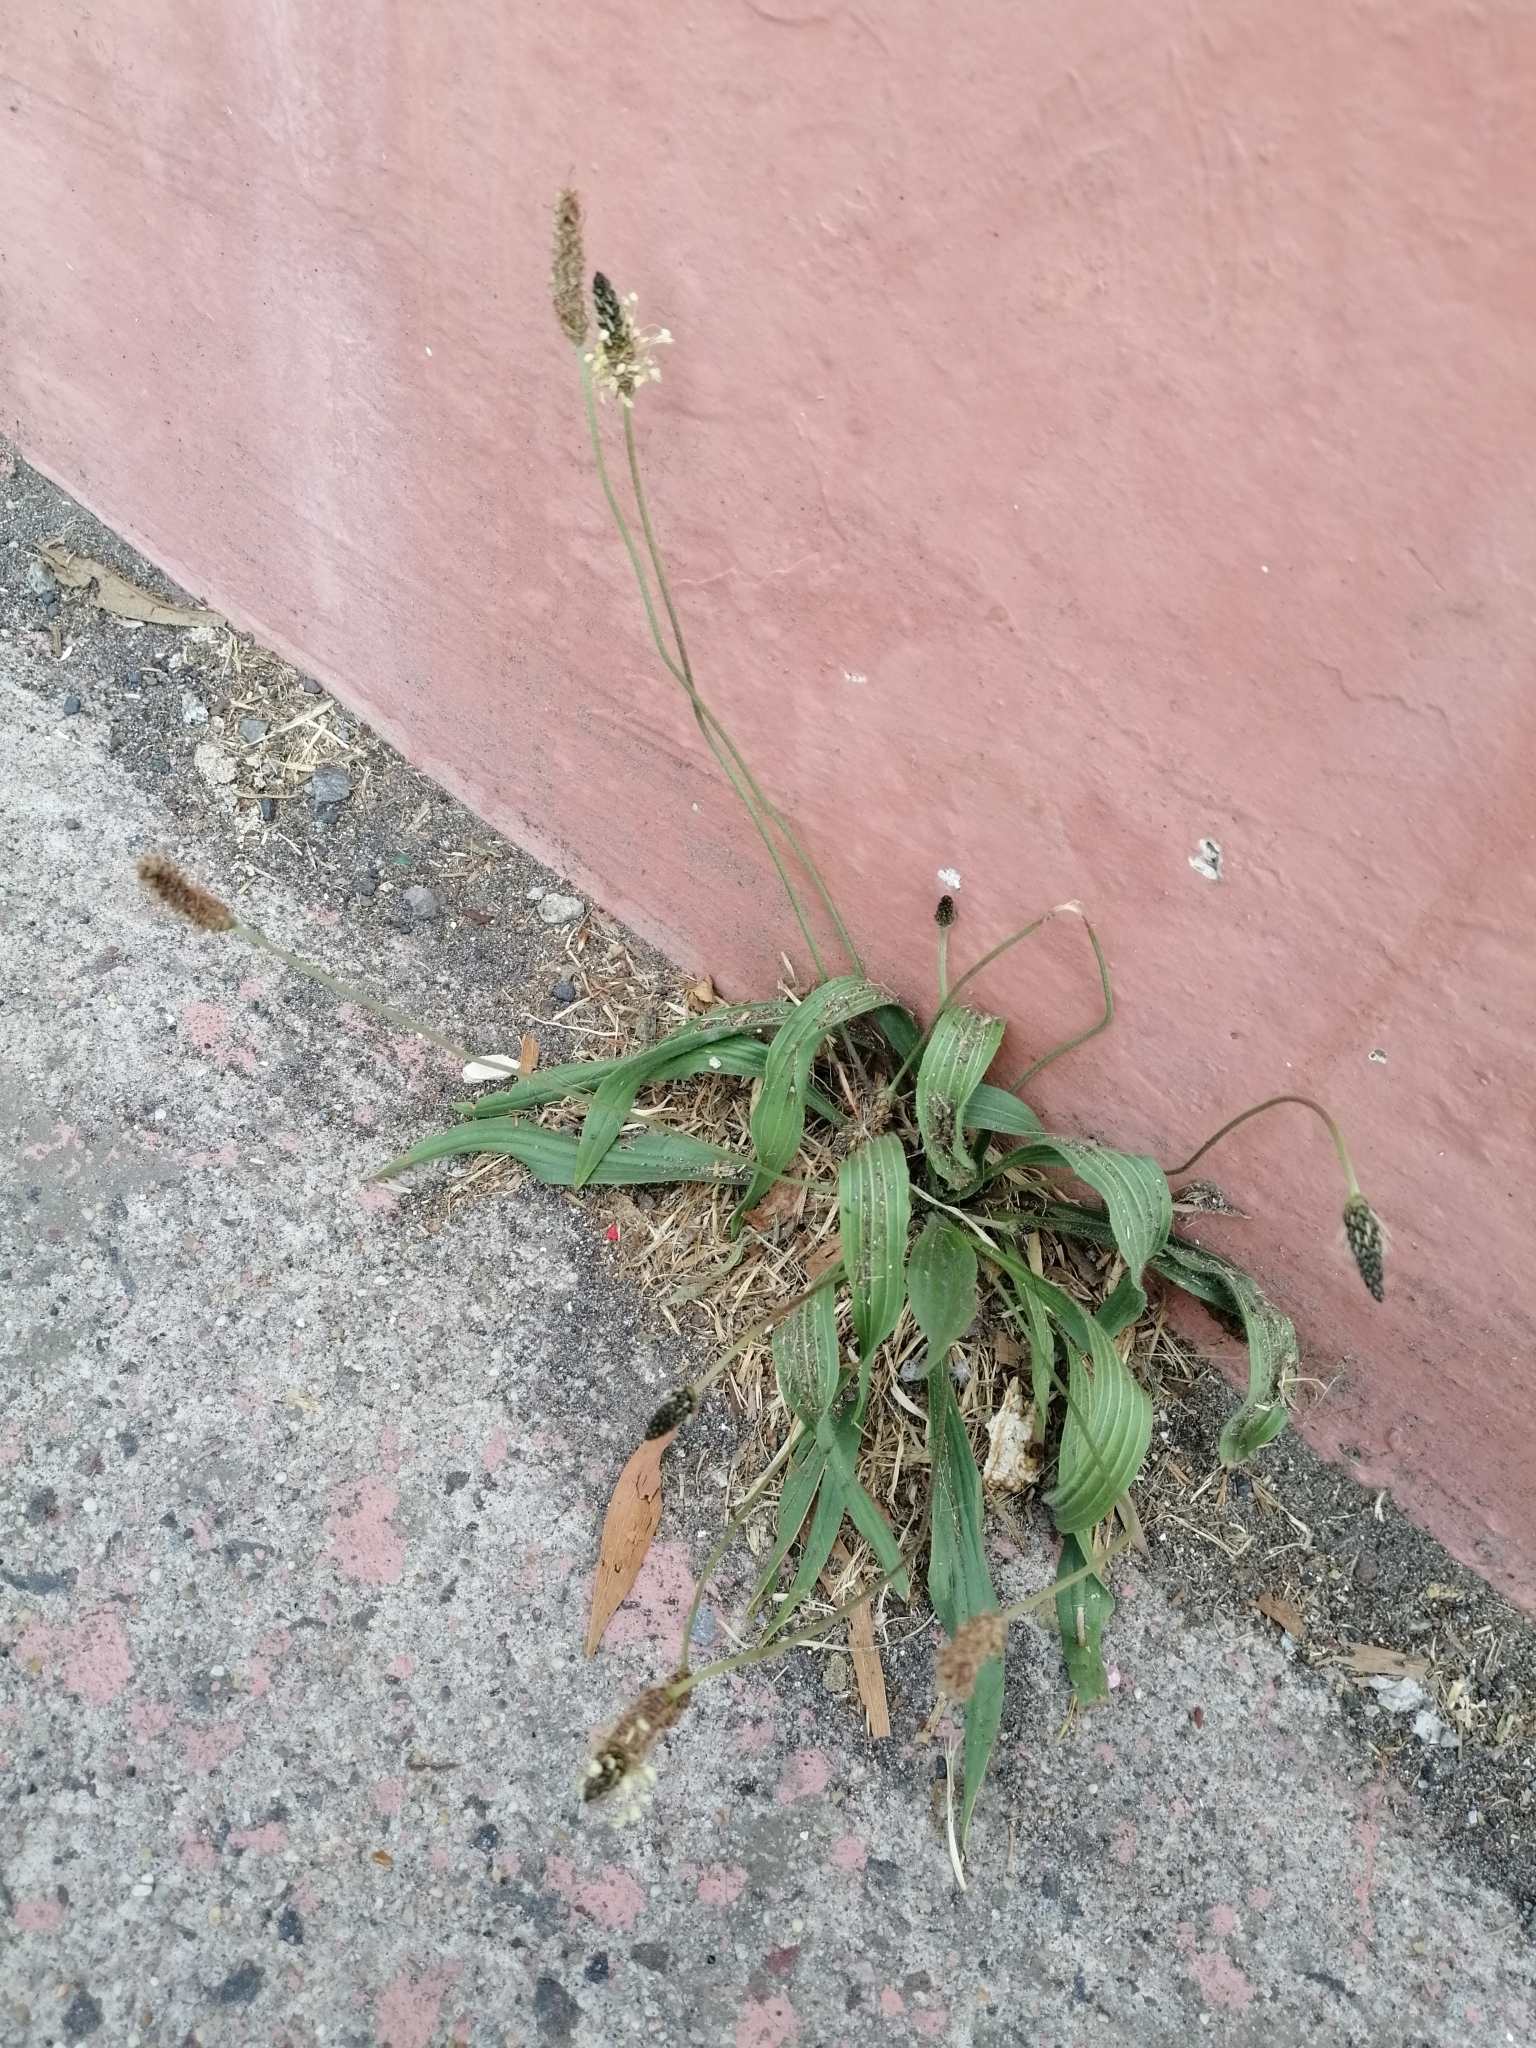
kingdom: Plantae
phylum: Tracheophyta
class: Magnoliopsida
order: Lamiales
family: Plantaginaceae
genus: Plantago
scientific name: Plantago lanceolata
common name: Ribwort plantain
